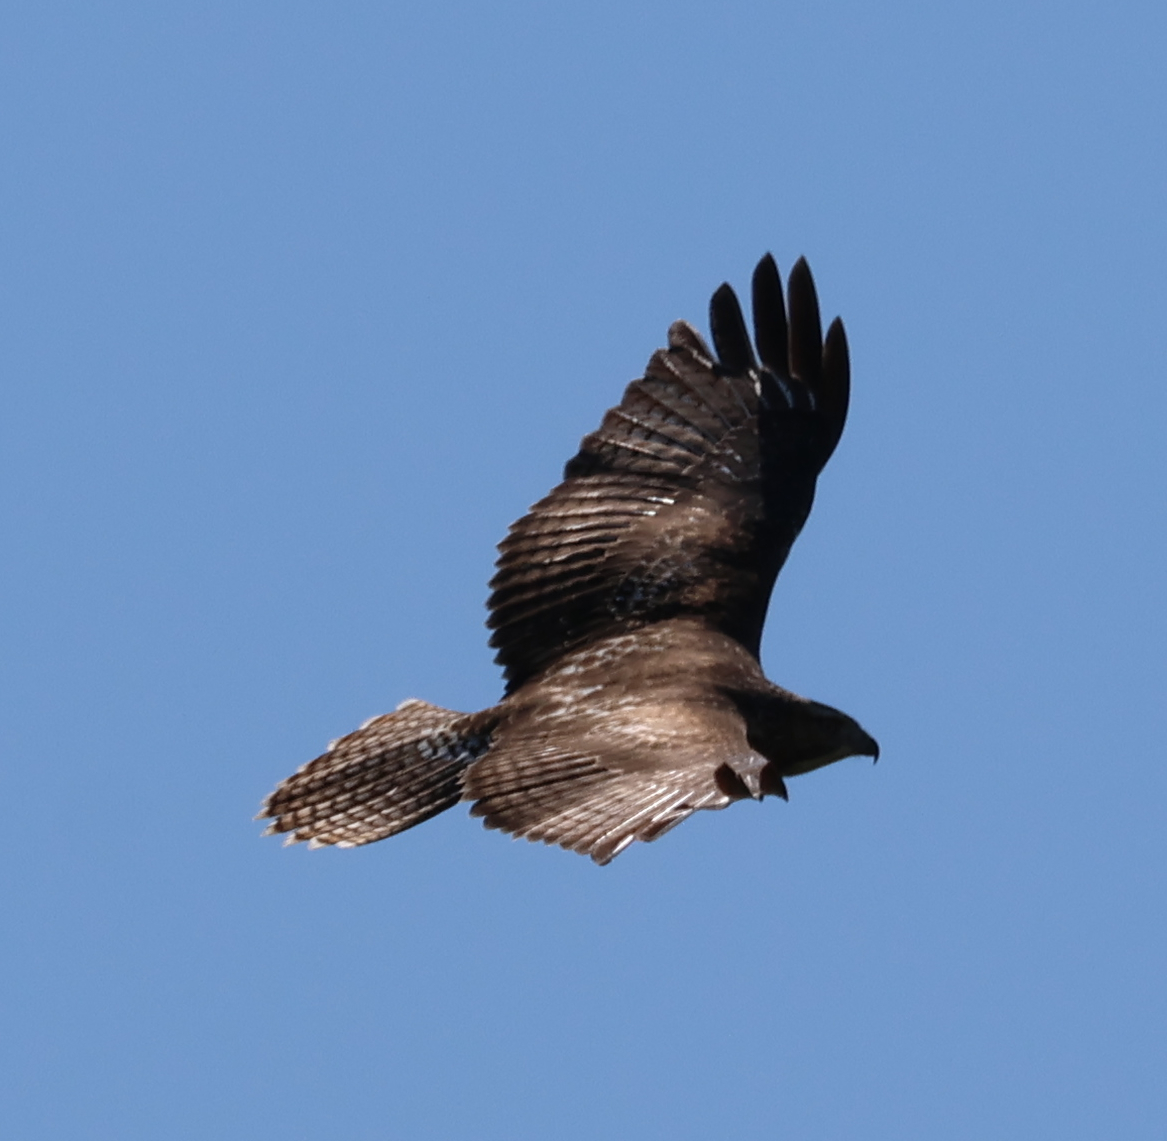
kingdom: Animalia
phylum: Chordata
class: Aves
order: Accipitriformes
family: Accipitridae
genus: Buteo
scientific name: Buteo jamaicensis
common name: Red-tailed hawk
